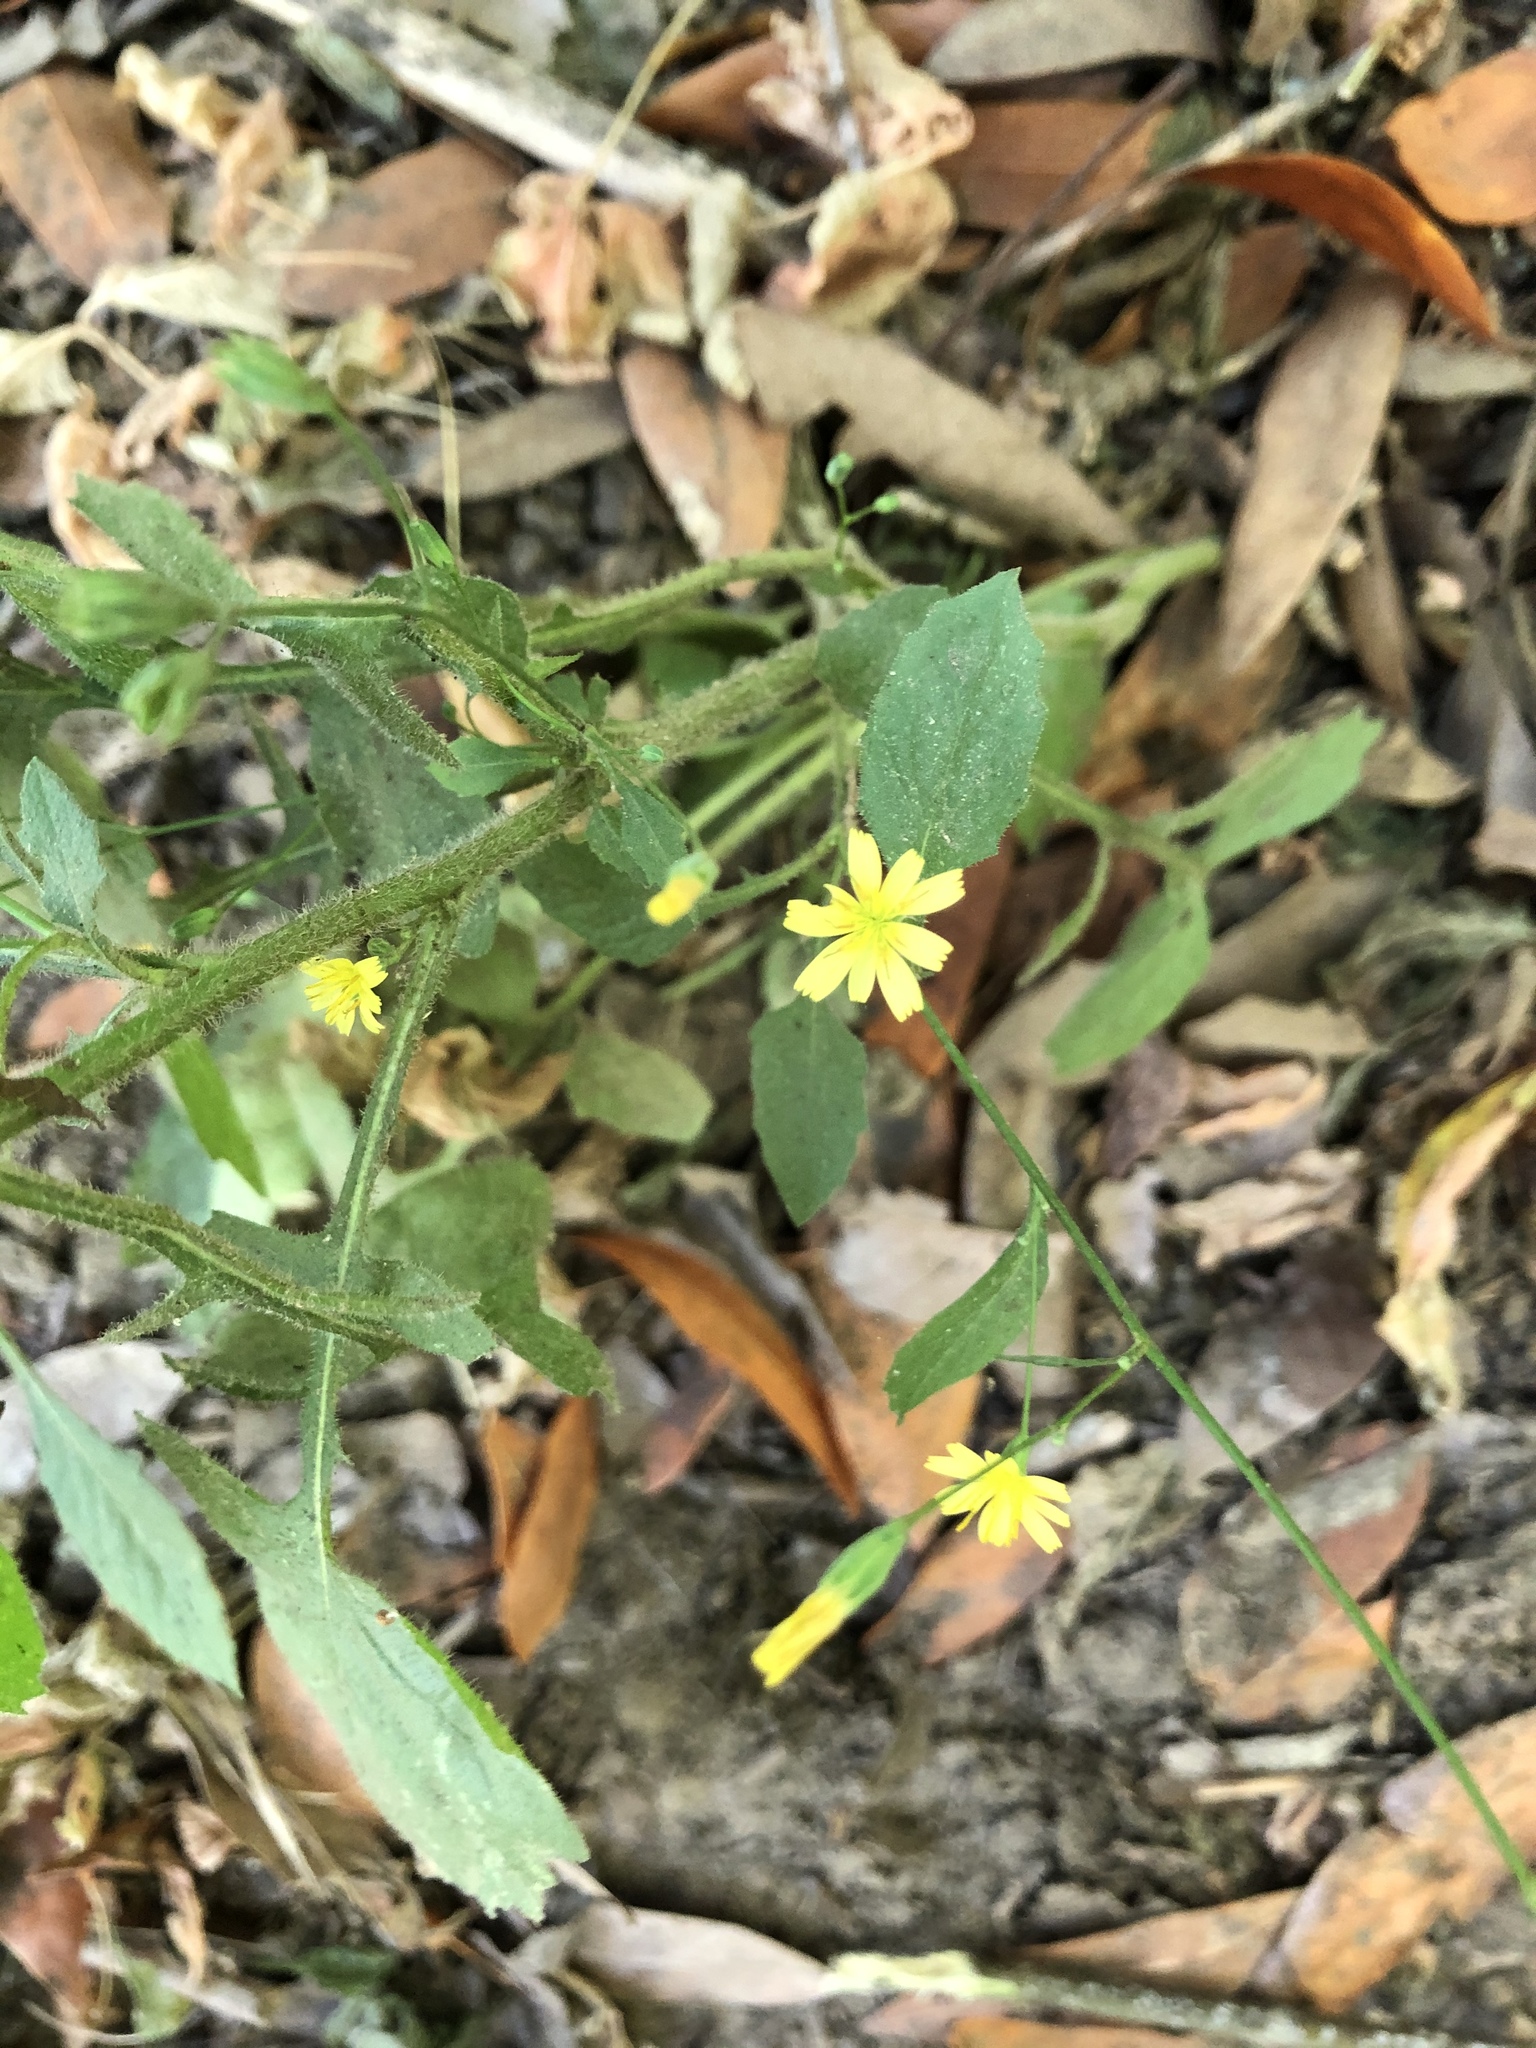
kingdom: Plantae
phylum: Tracheophyta
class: Magnoliopsida
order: Asterales
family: Asteraceae
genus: Lapsana
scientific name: Lapsana communis
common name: Nipplewort
